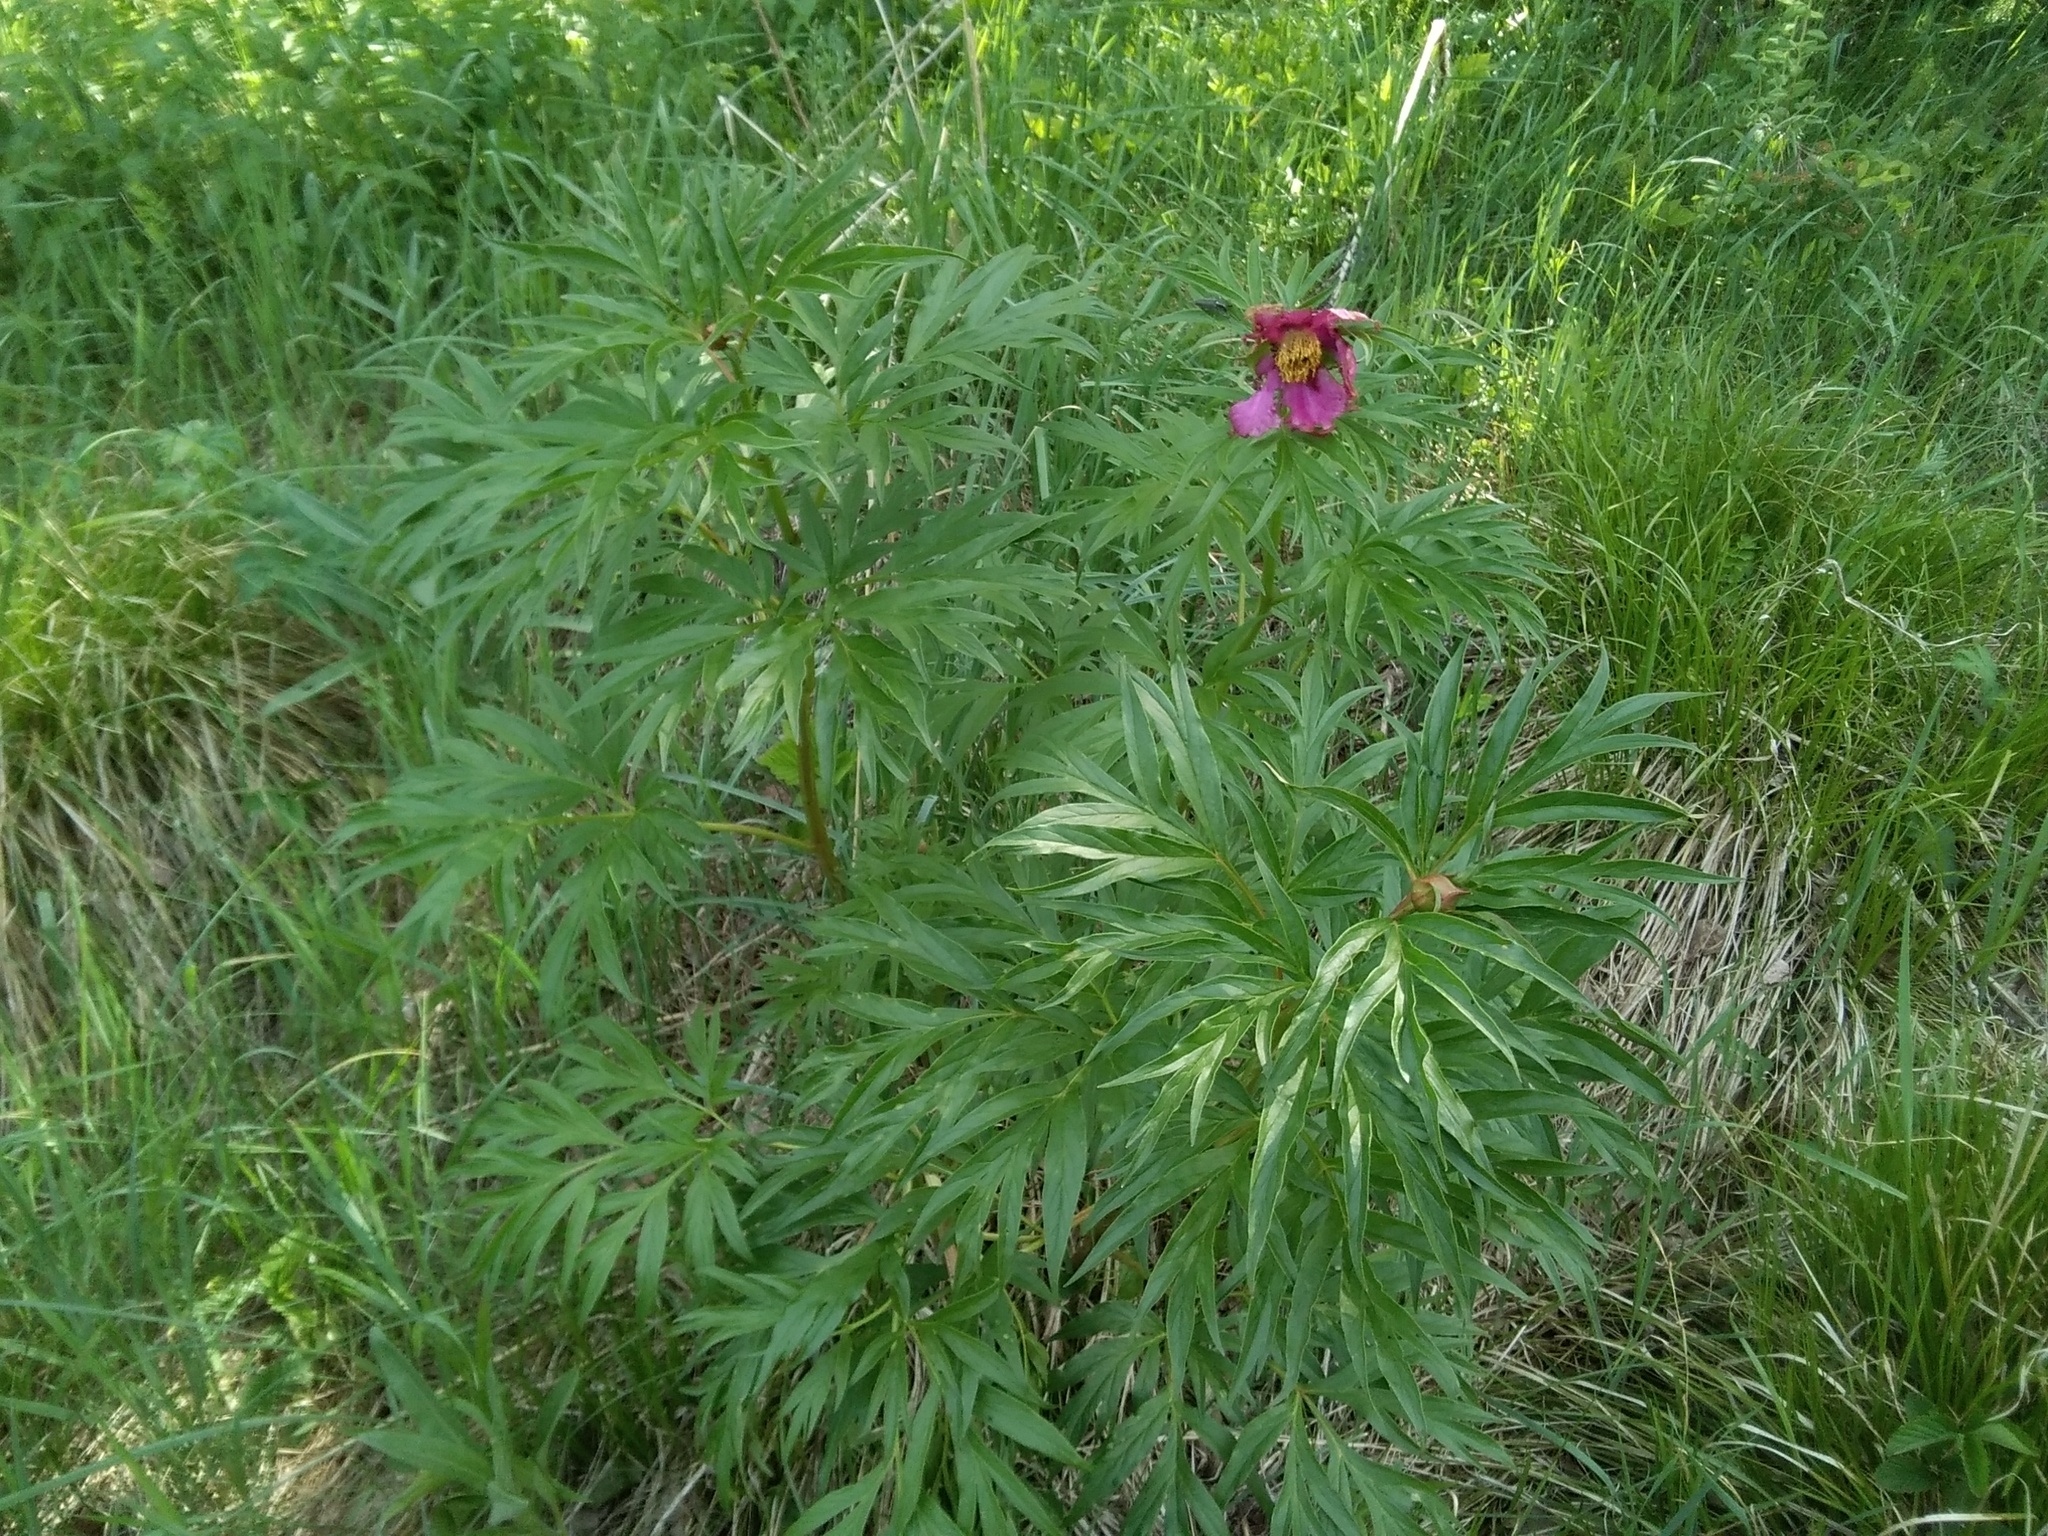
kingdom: Plantae
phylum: Tracheophyta
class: Magnoliopsida
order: Saxifragales
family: Paeoniaceae
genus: Paeonia
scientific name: Paeonia anomala
